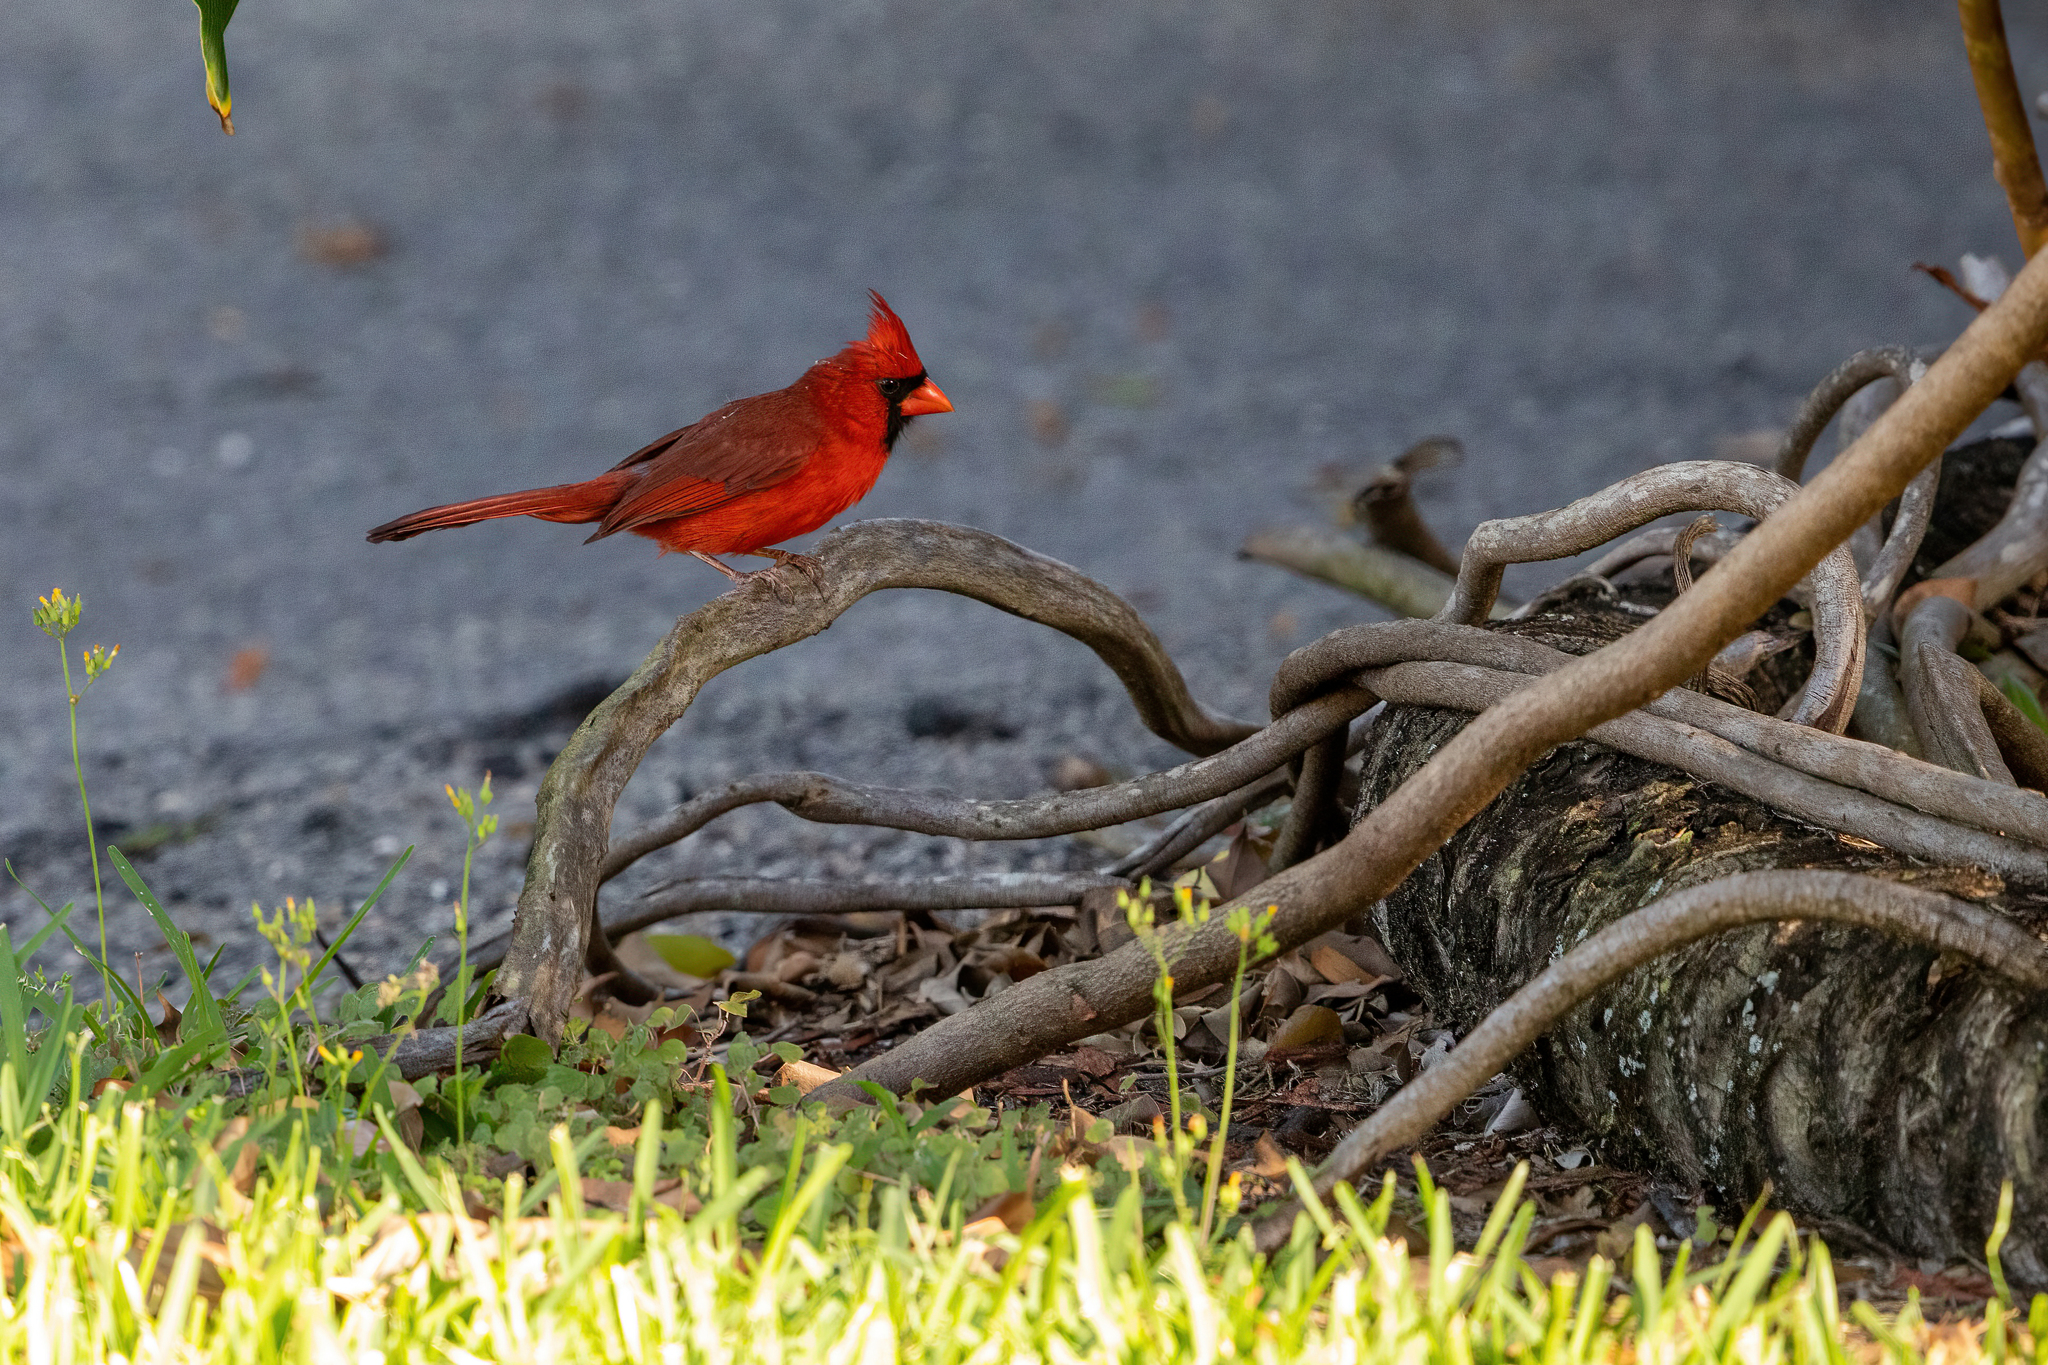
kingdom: Animalia
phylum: Chordata
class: Aves
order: Passeriformes
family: Cardinalidae
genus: Cardinalis
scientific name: Cardinalis cardinalis
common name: Northern cardinal
